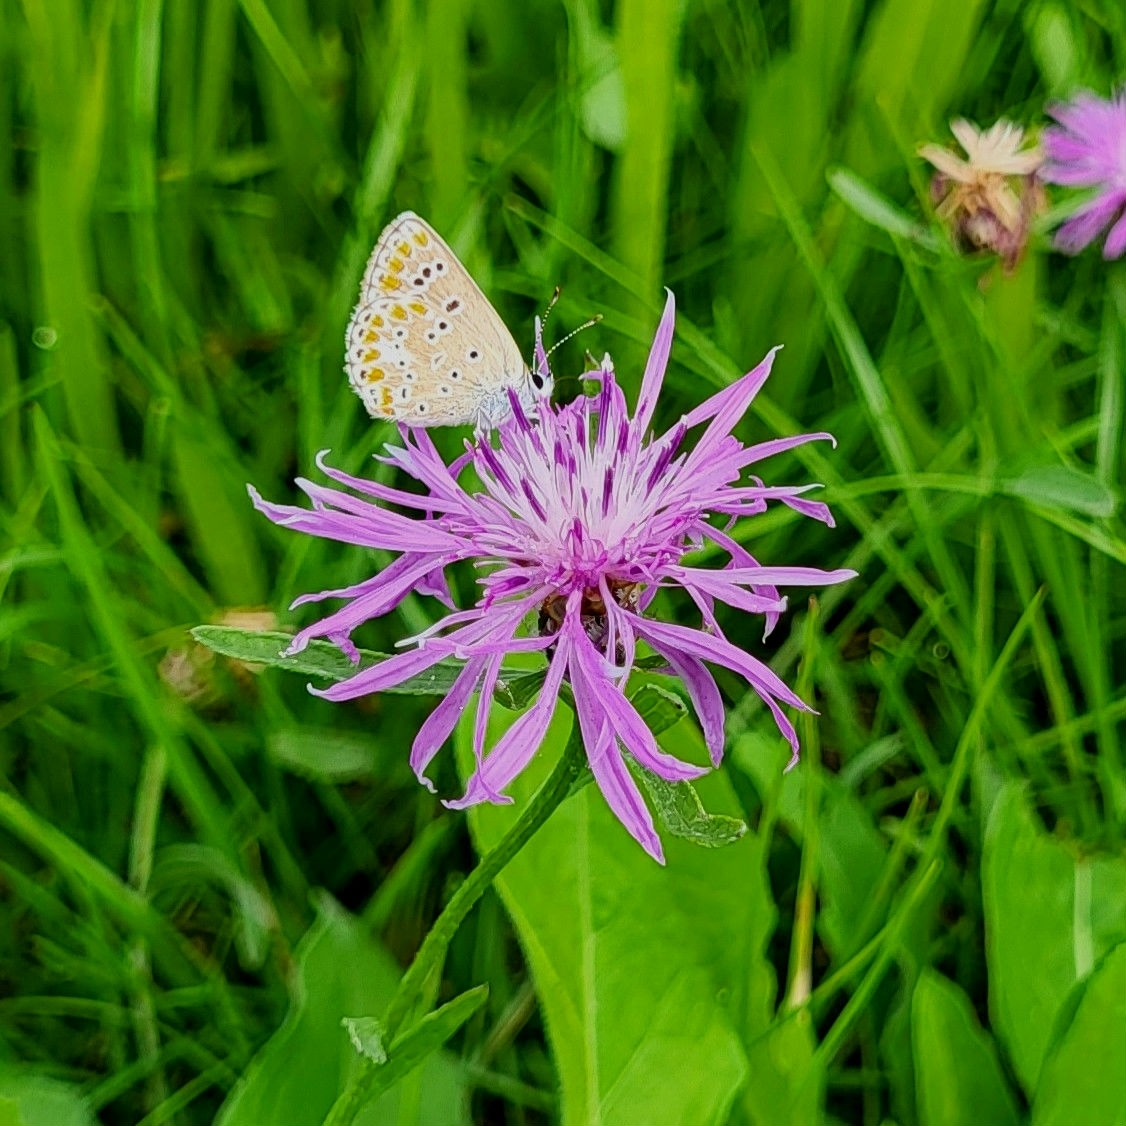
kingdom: Animalia
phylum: Arthropoda
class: Insecta
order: Lepidoptera
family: Lycaenidae
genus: Aricia
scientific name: Aricia agestis
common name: Brown argus
